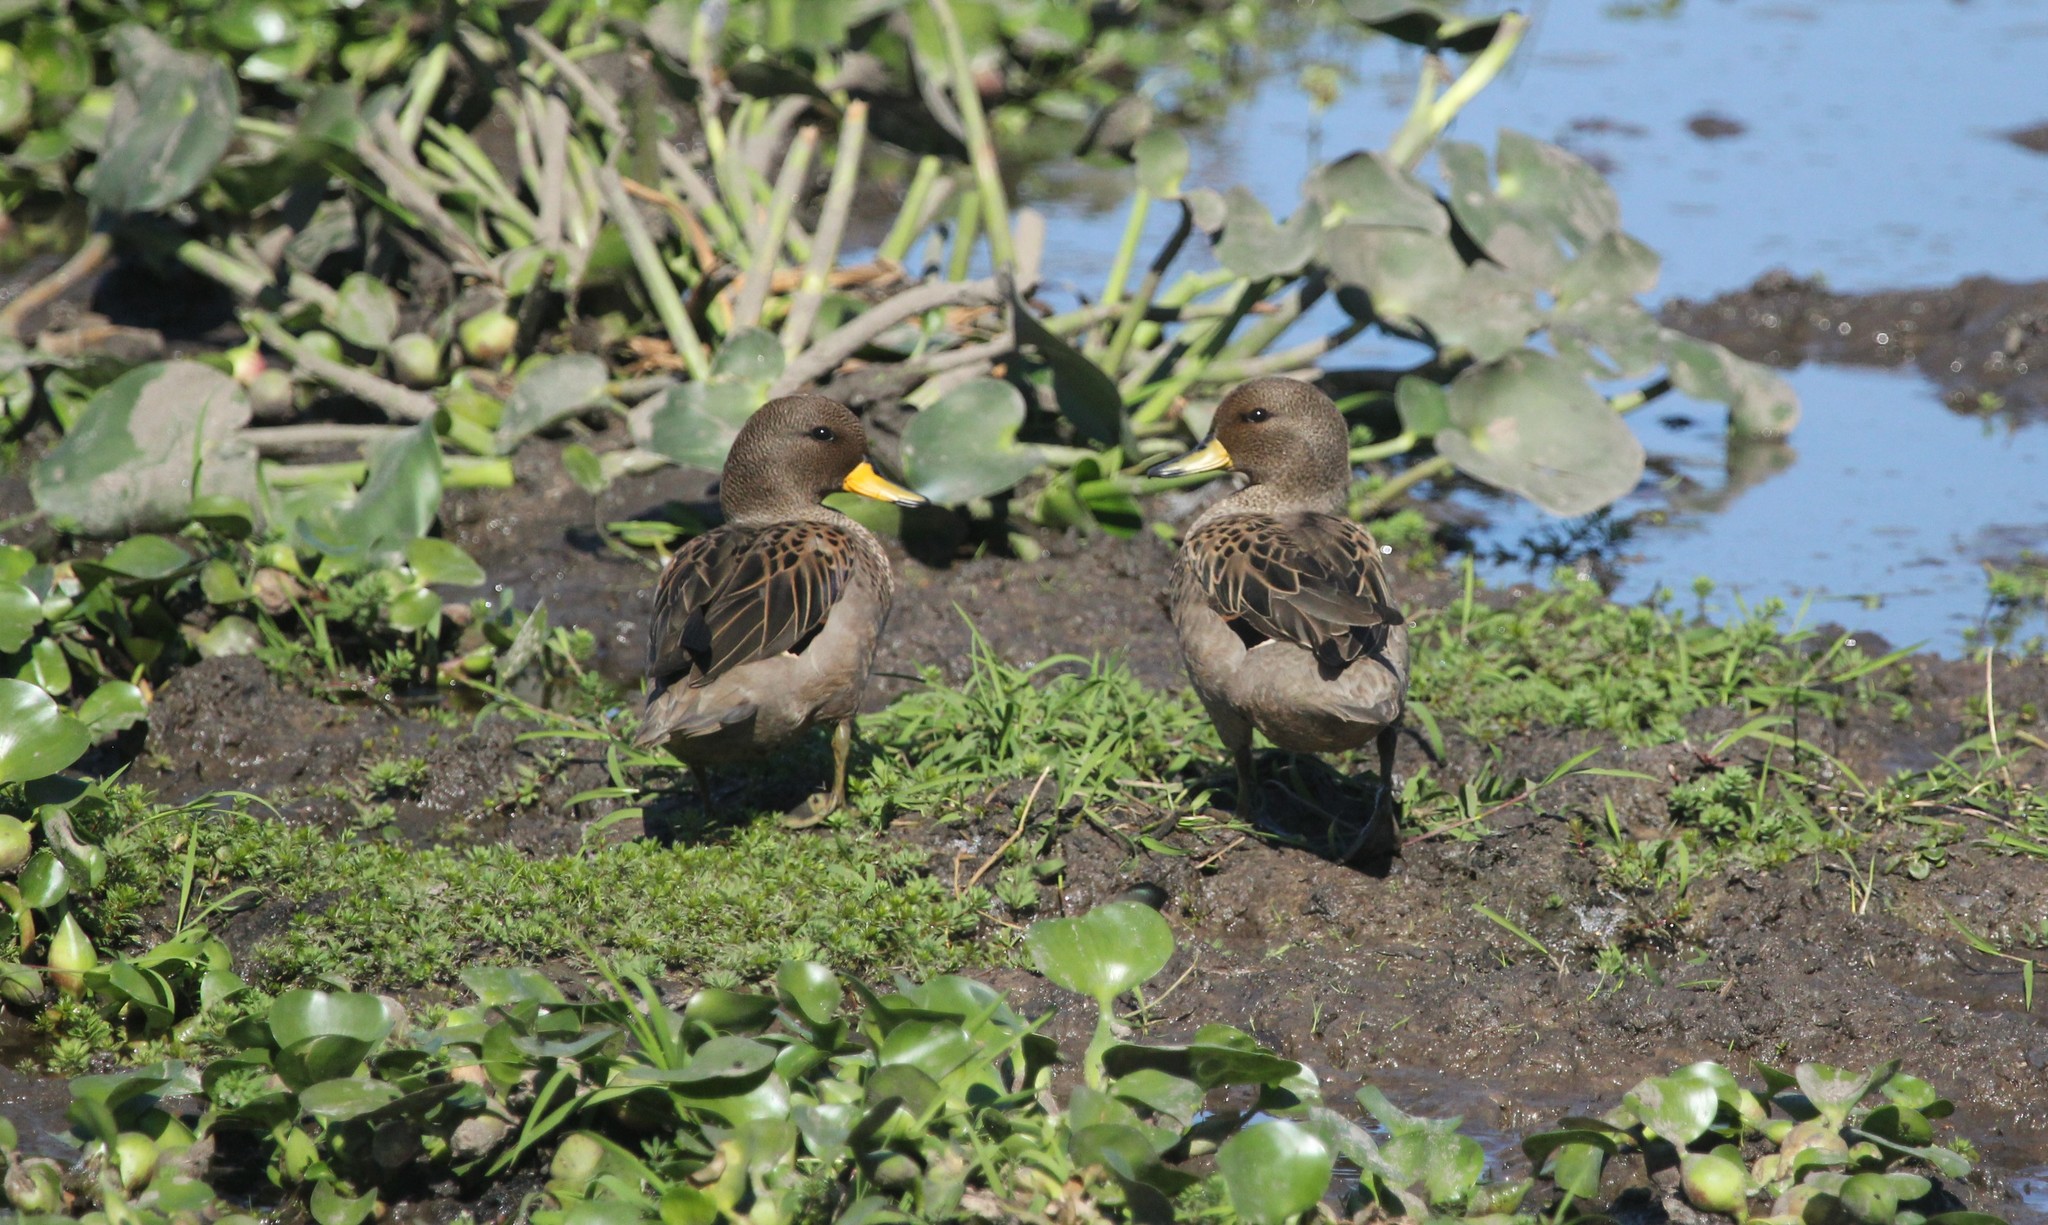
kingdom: Animalia
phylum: Chordata
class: Aves
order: Anseriformes
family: Anatidae
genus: Anas
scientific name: Anas flavirostris
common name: Yellow-billed teal
